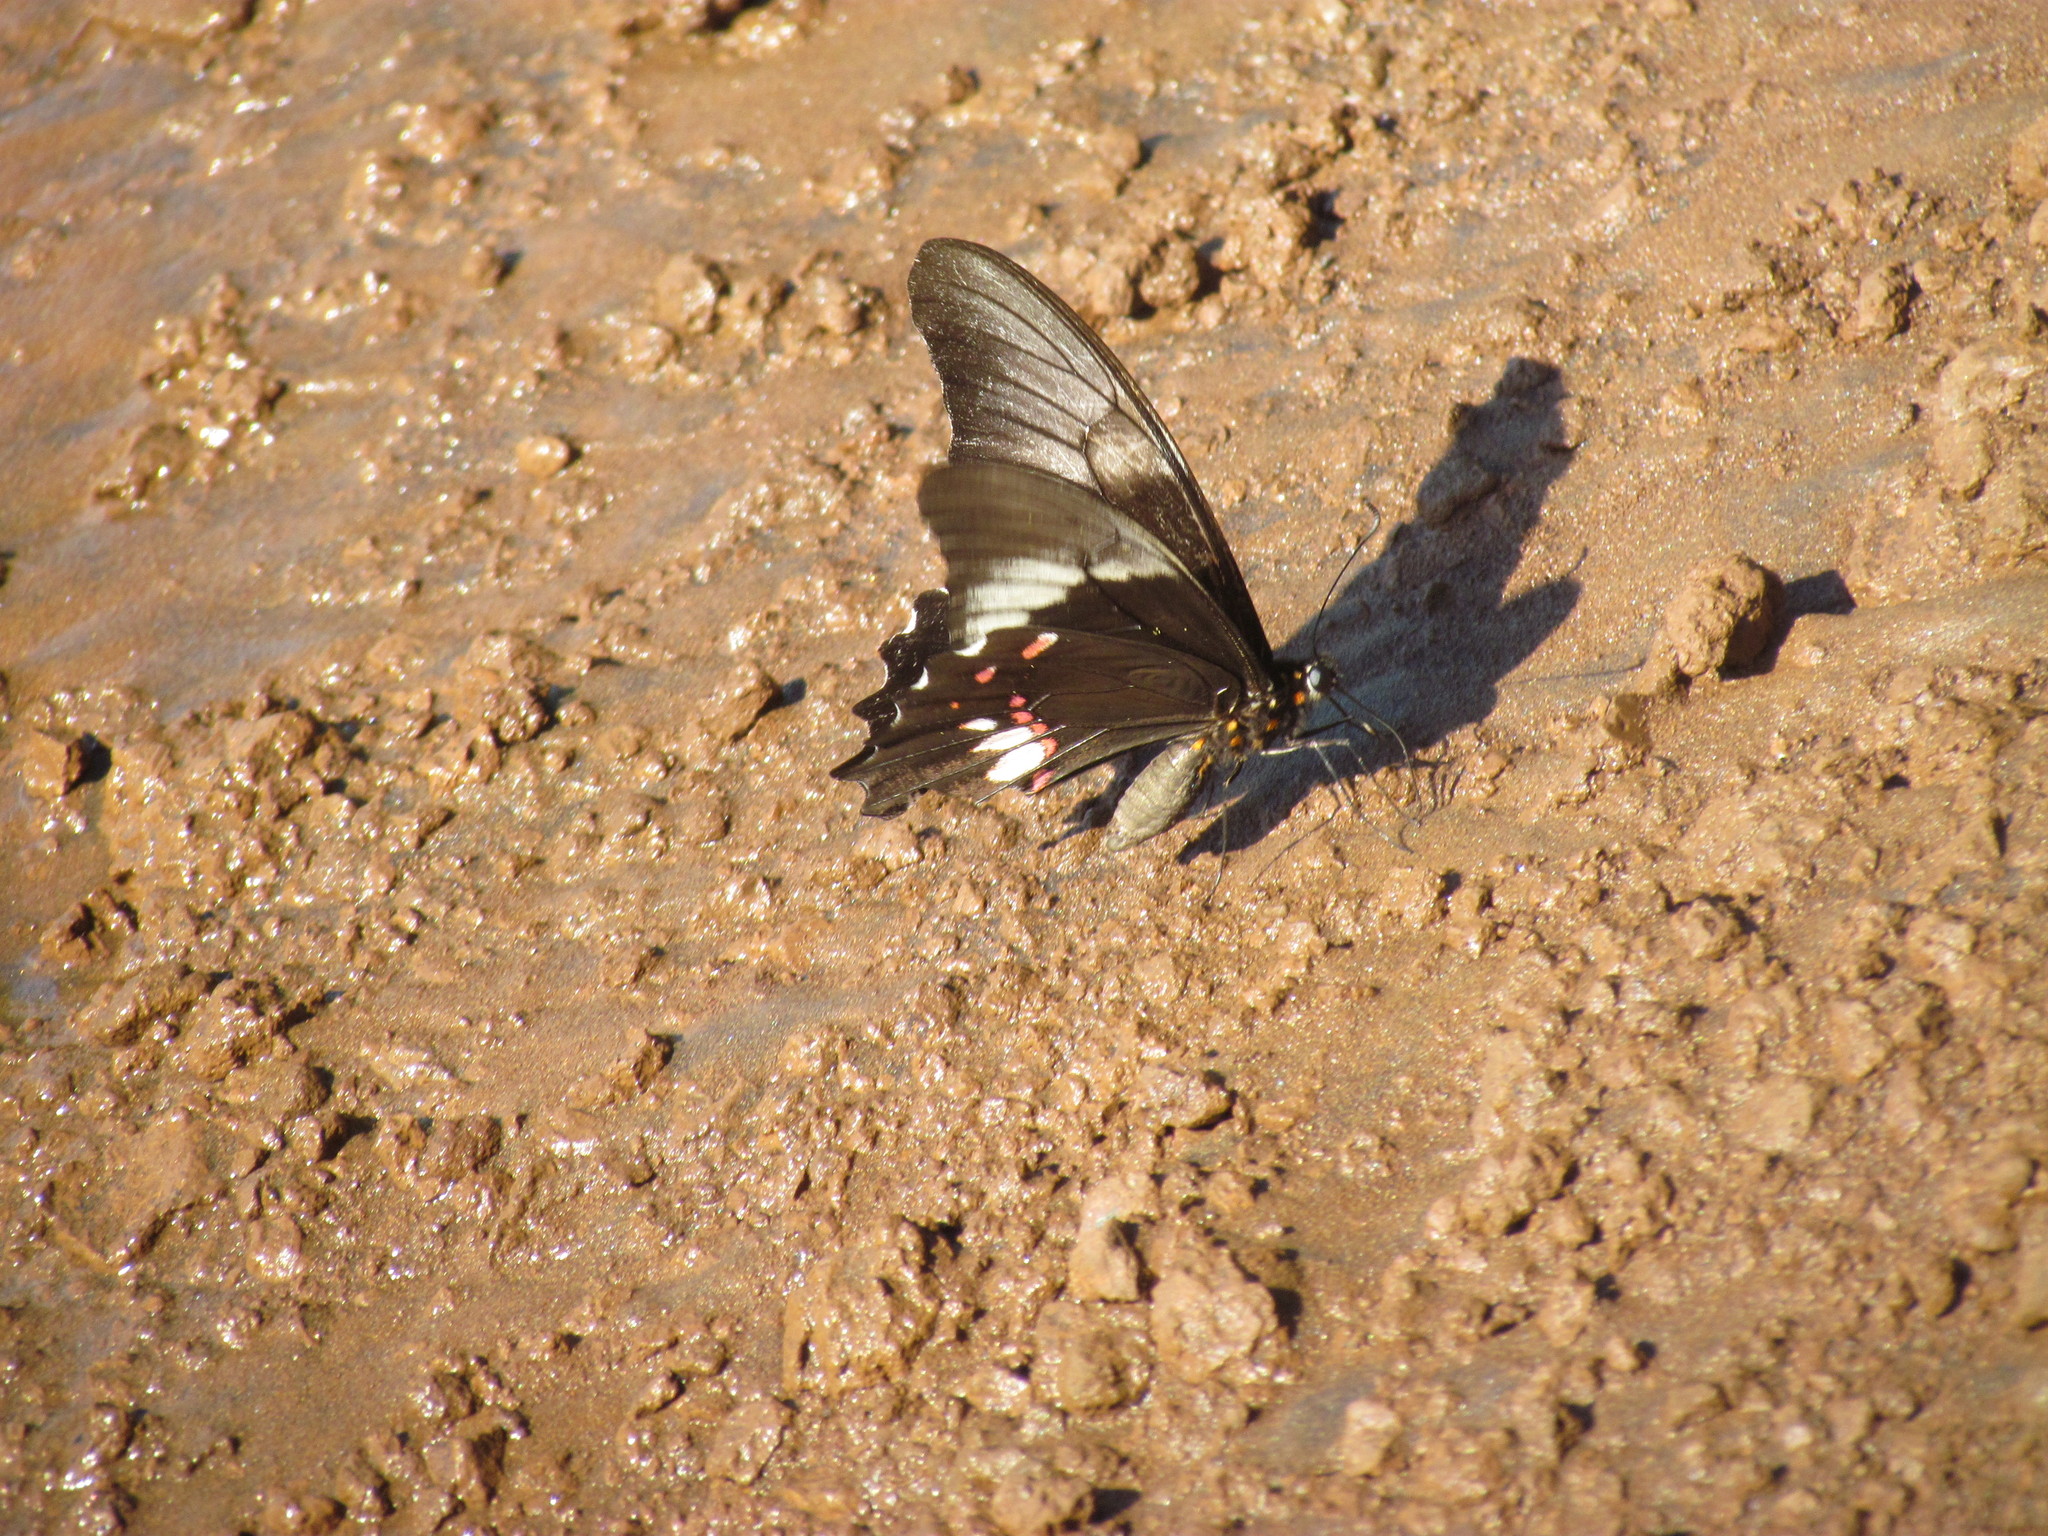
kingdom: Animalia
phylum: Arthropoda
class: Insecta
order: Lepidoptera
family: Papilionidae
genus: Papilio
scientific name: Papilio anchisiades
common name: Idaes swallowtail
